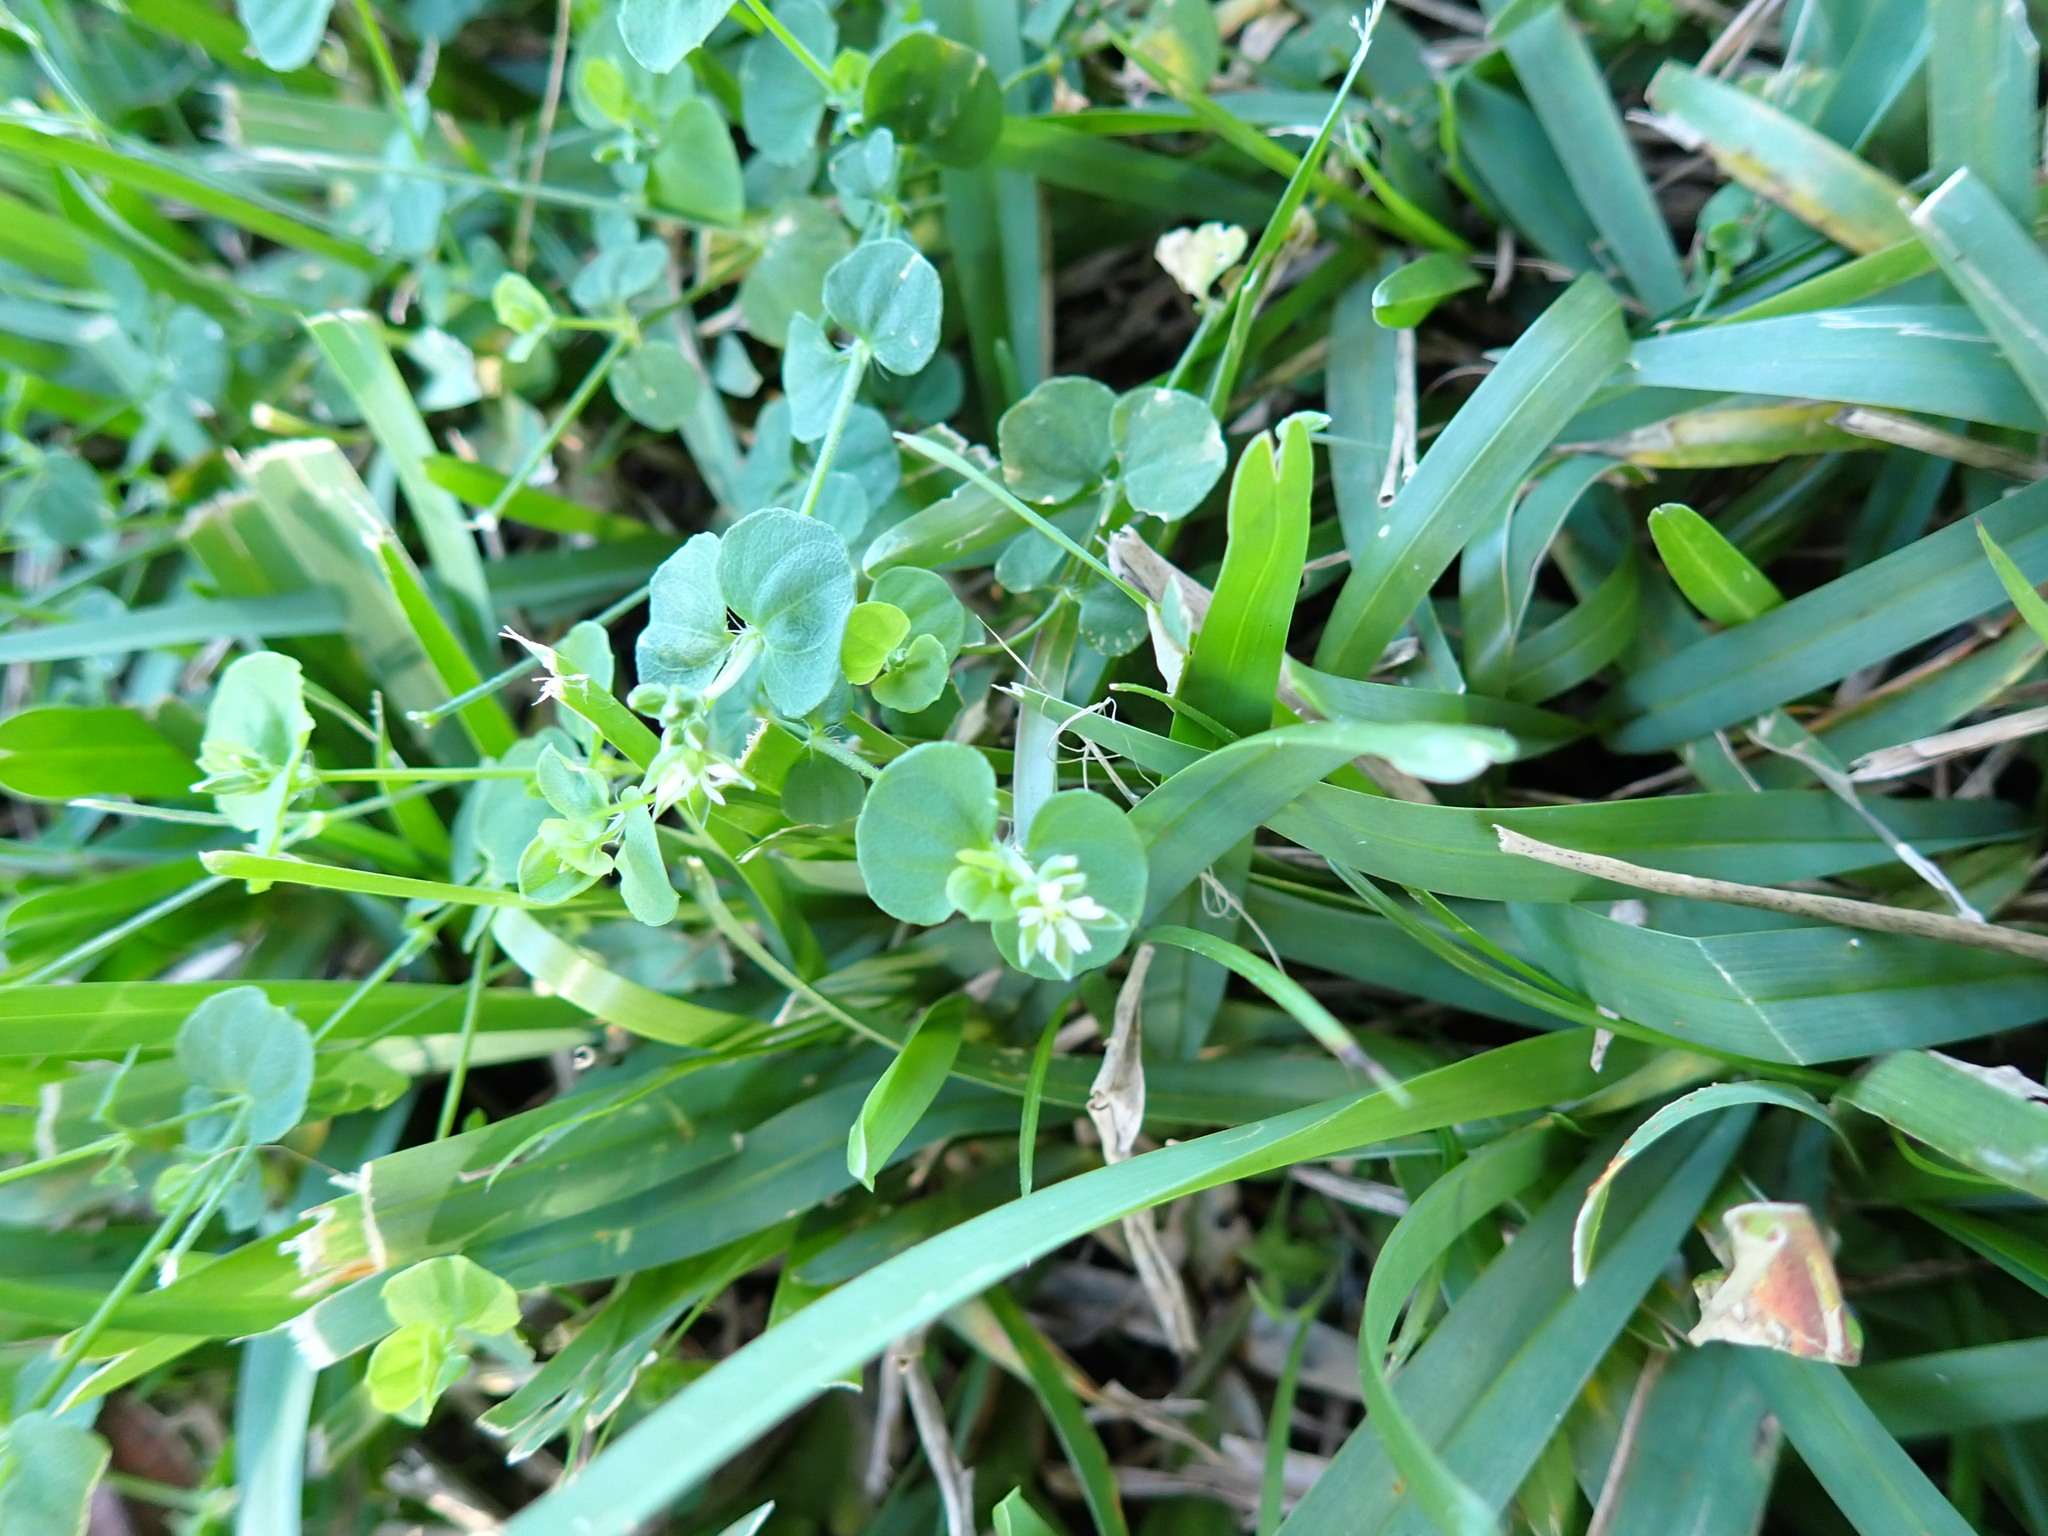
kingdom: Plantae
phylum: Tracheophyta
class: Magnoliopsida
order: Caryophyllales
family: Caryophyllaceae
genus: Drymaria
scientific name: Drymaria cordata
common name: Whitesnow
